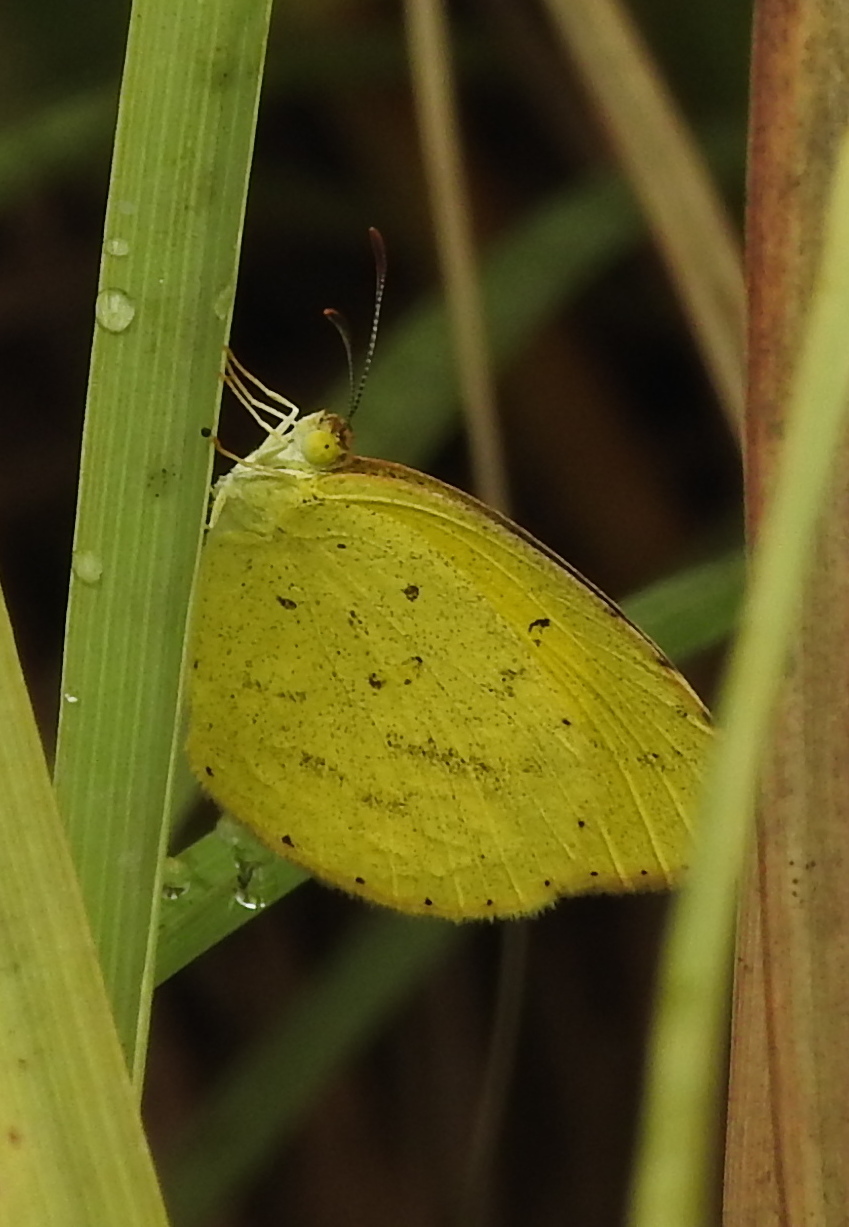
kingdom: Animalia
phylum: Arthropoda
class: Insecta
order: Lepidoptera
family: Pieridae
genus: Eurema
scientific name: Eurema brigitta
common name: Small grass yellow
